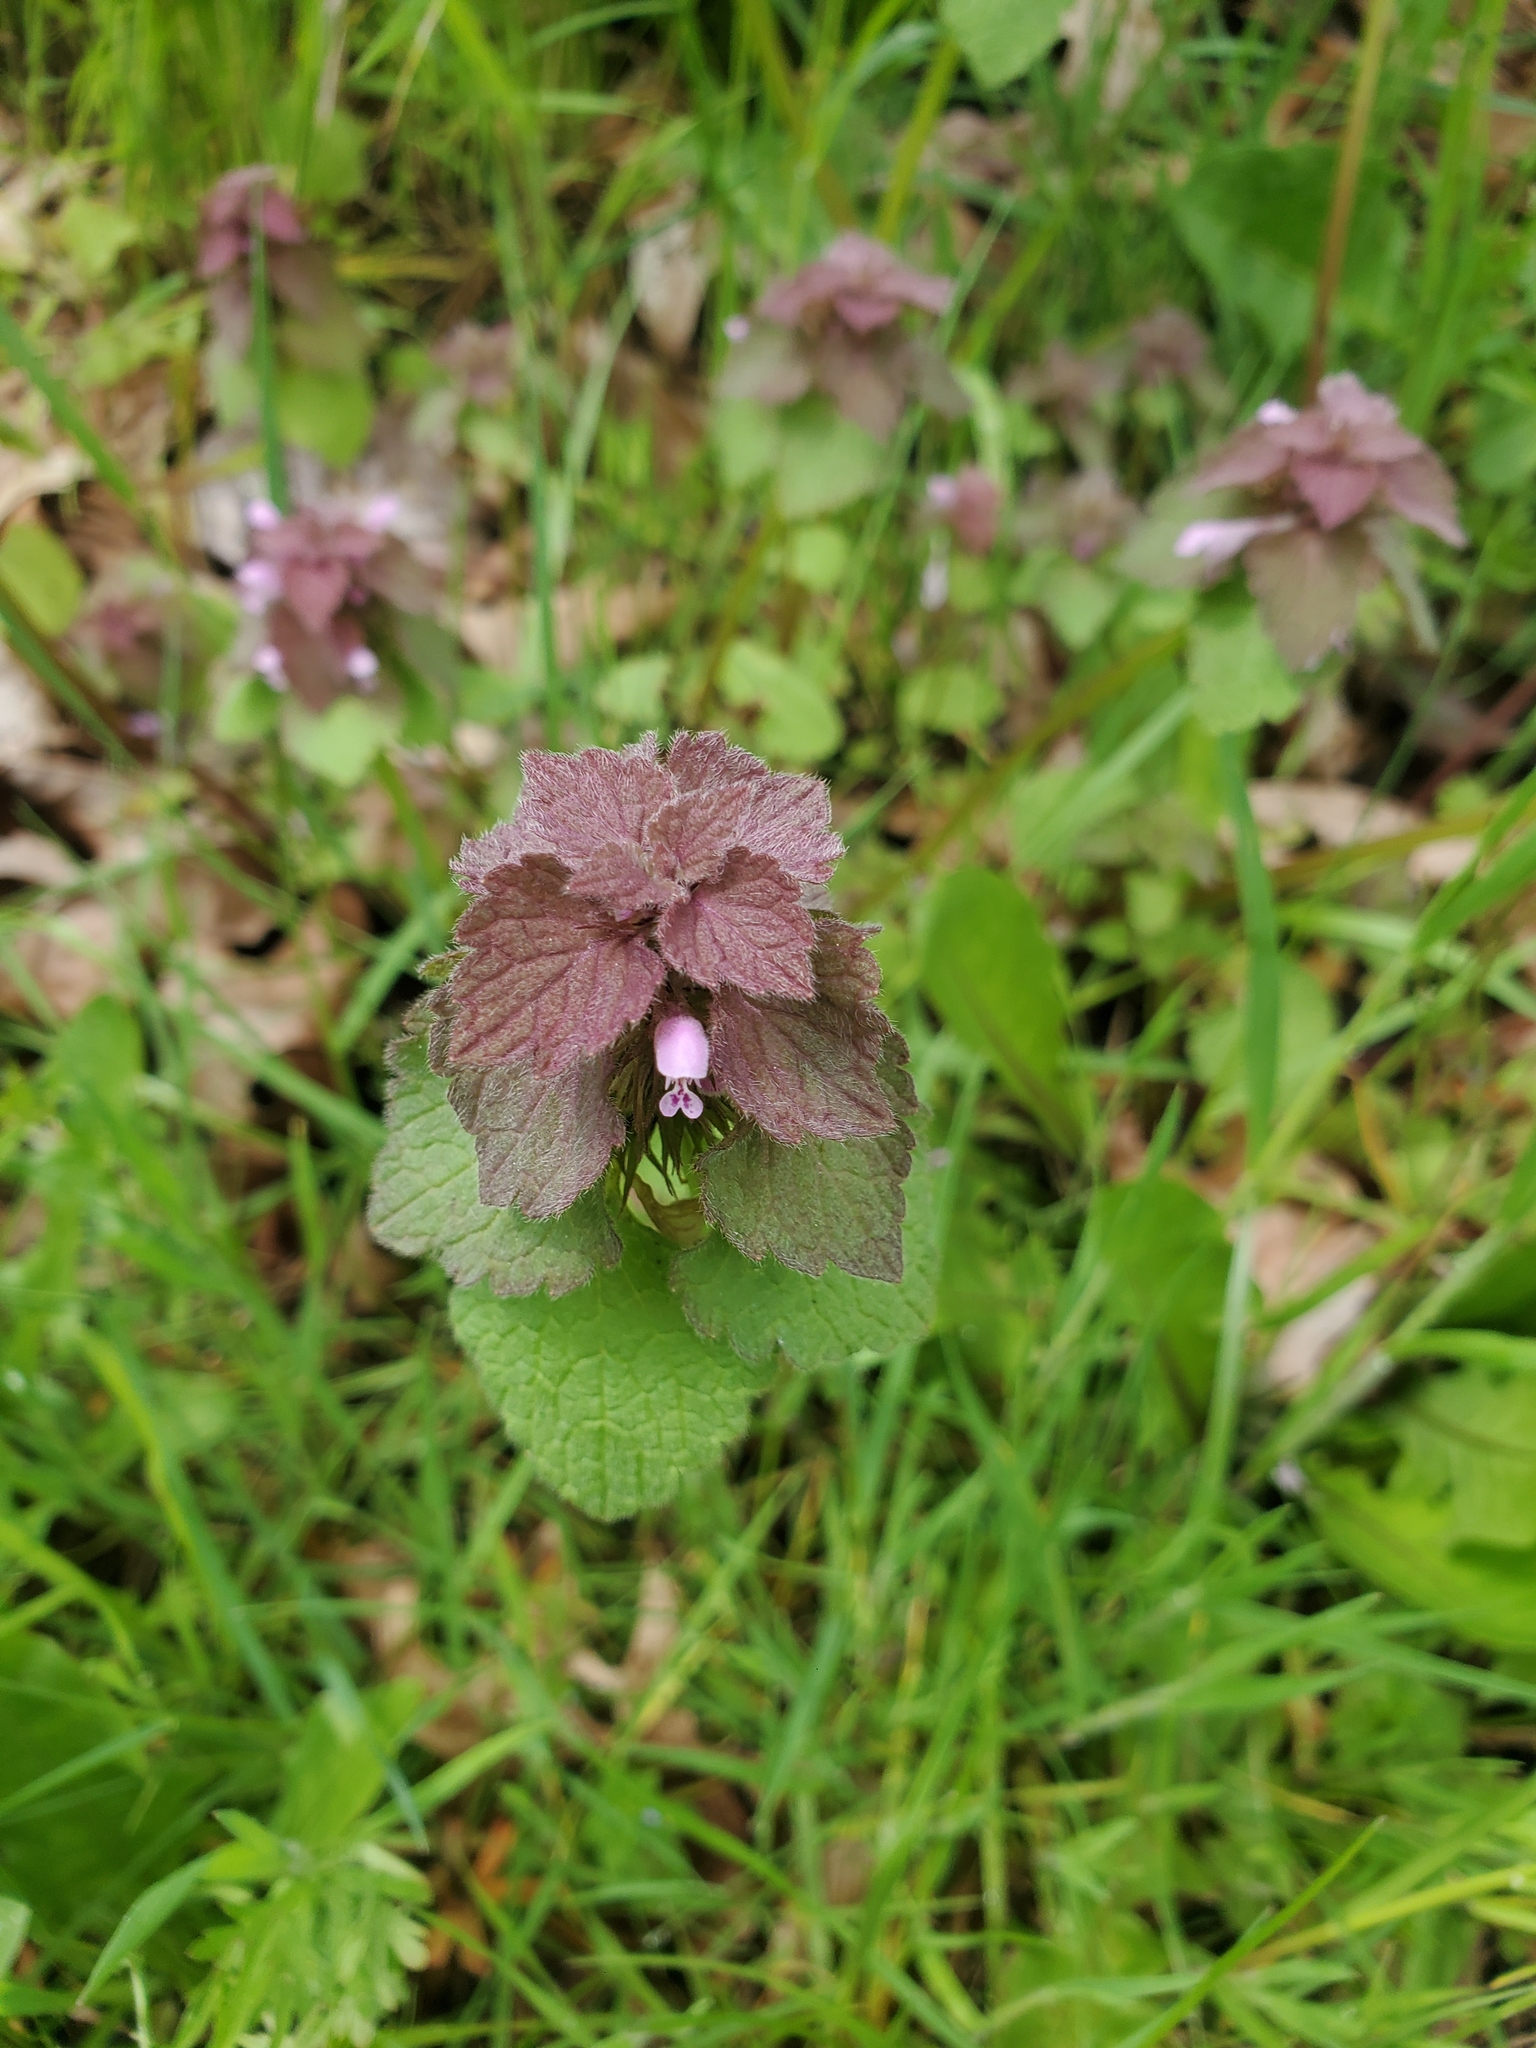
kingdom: Plantae
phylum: Tracheophyta
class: Magnoliopsida
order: Lamiales
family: Lamiaceae
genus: Lamium
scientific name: Lamium purpureum
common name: Red dead-nettle
